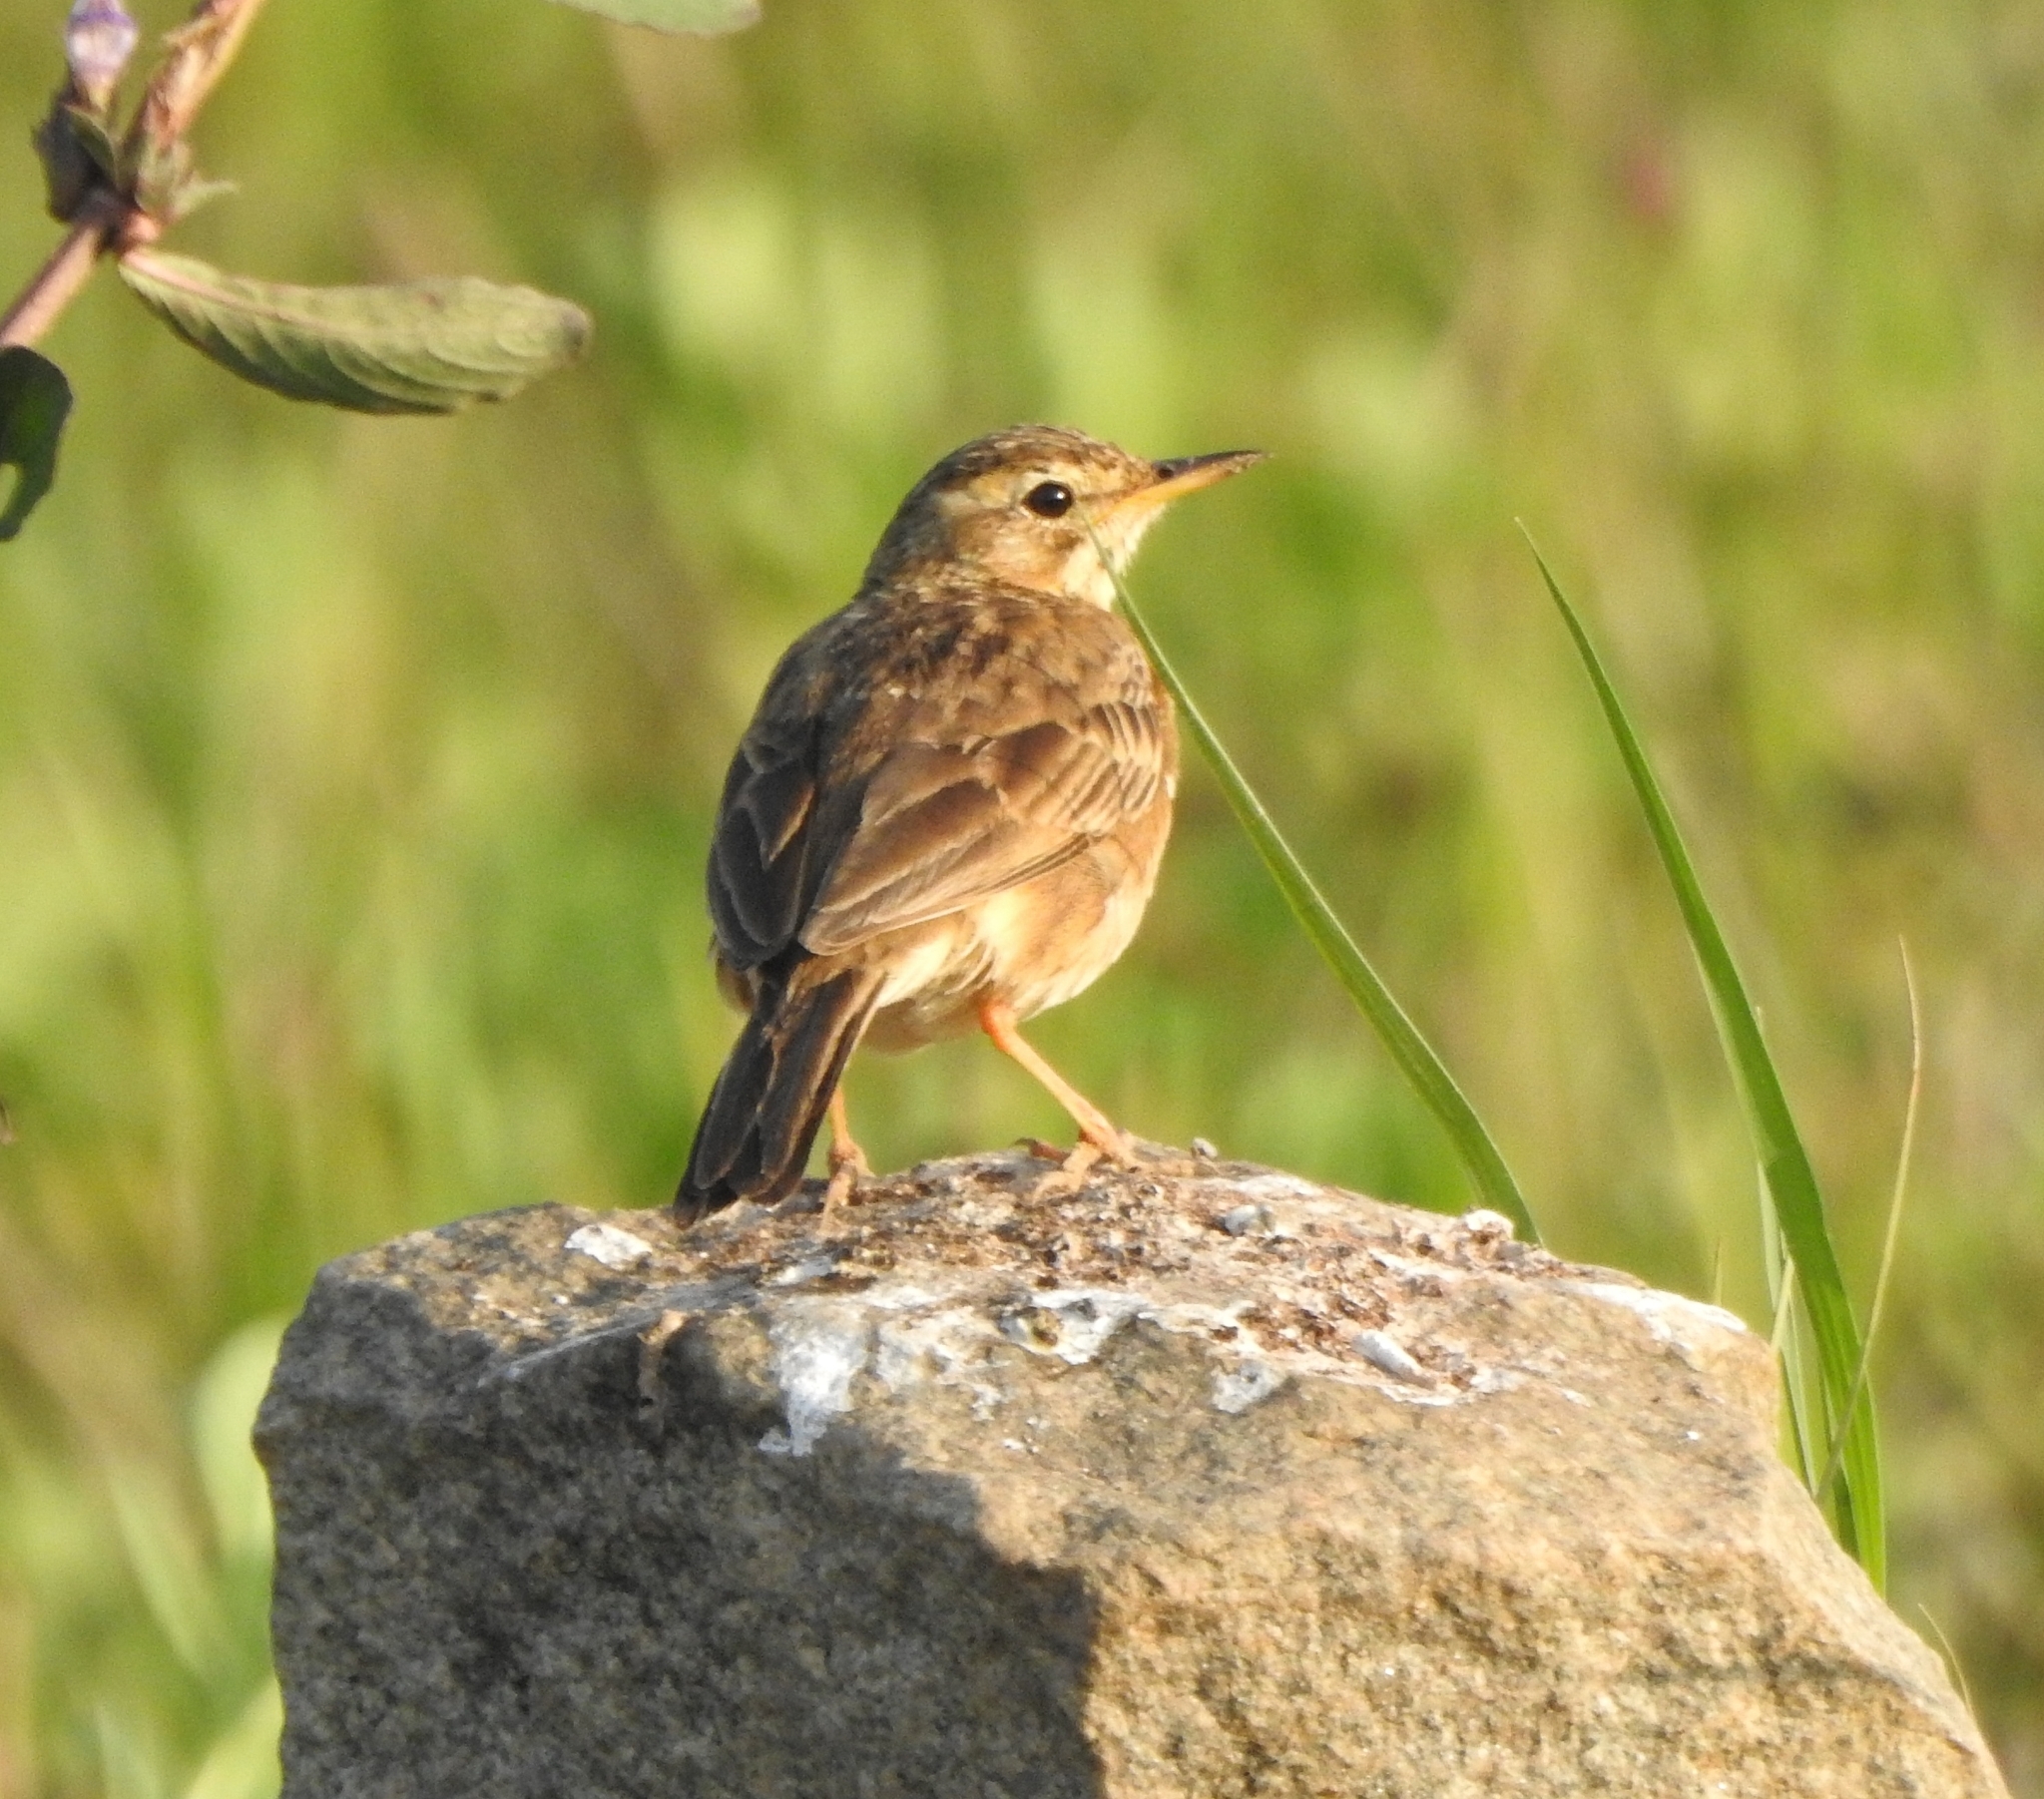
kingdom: Animalia
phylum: Chordata
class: Aves
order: Passeriformes
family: Motacillidae
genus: Anthus
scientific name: Anthus rufulus
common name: Paddyfield pipit
